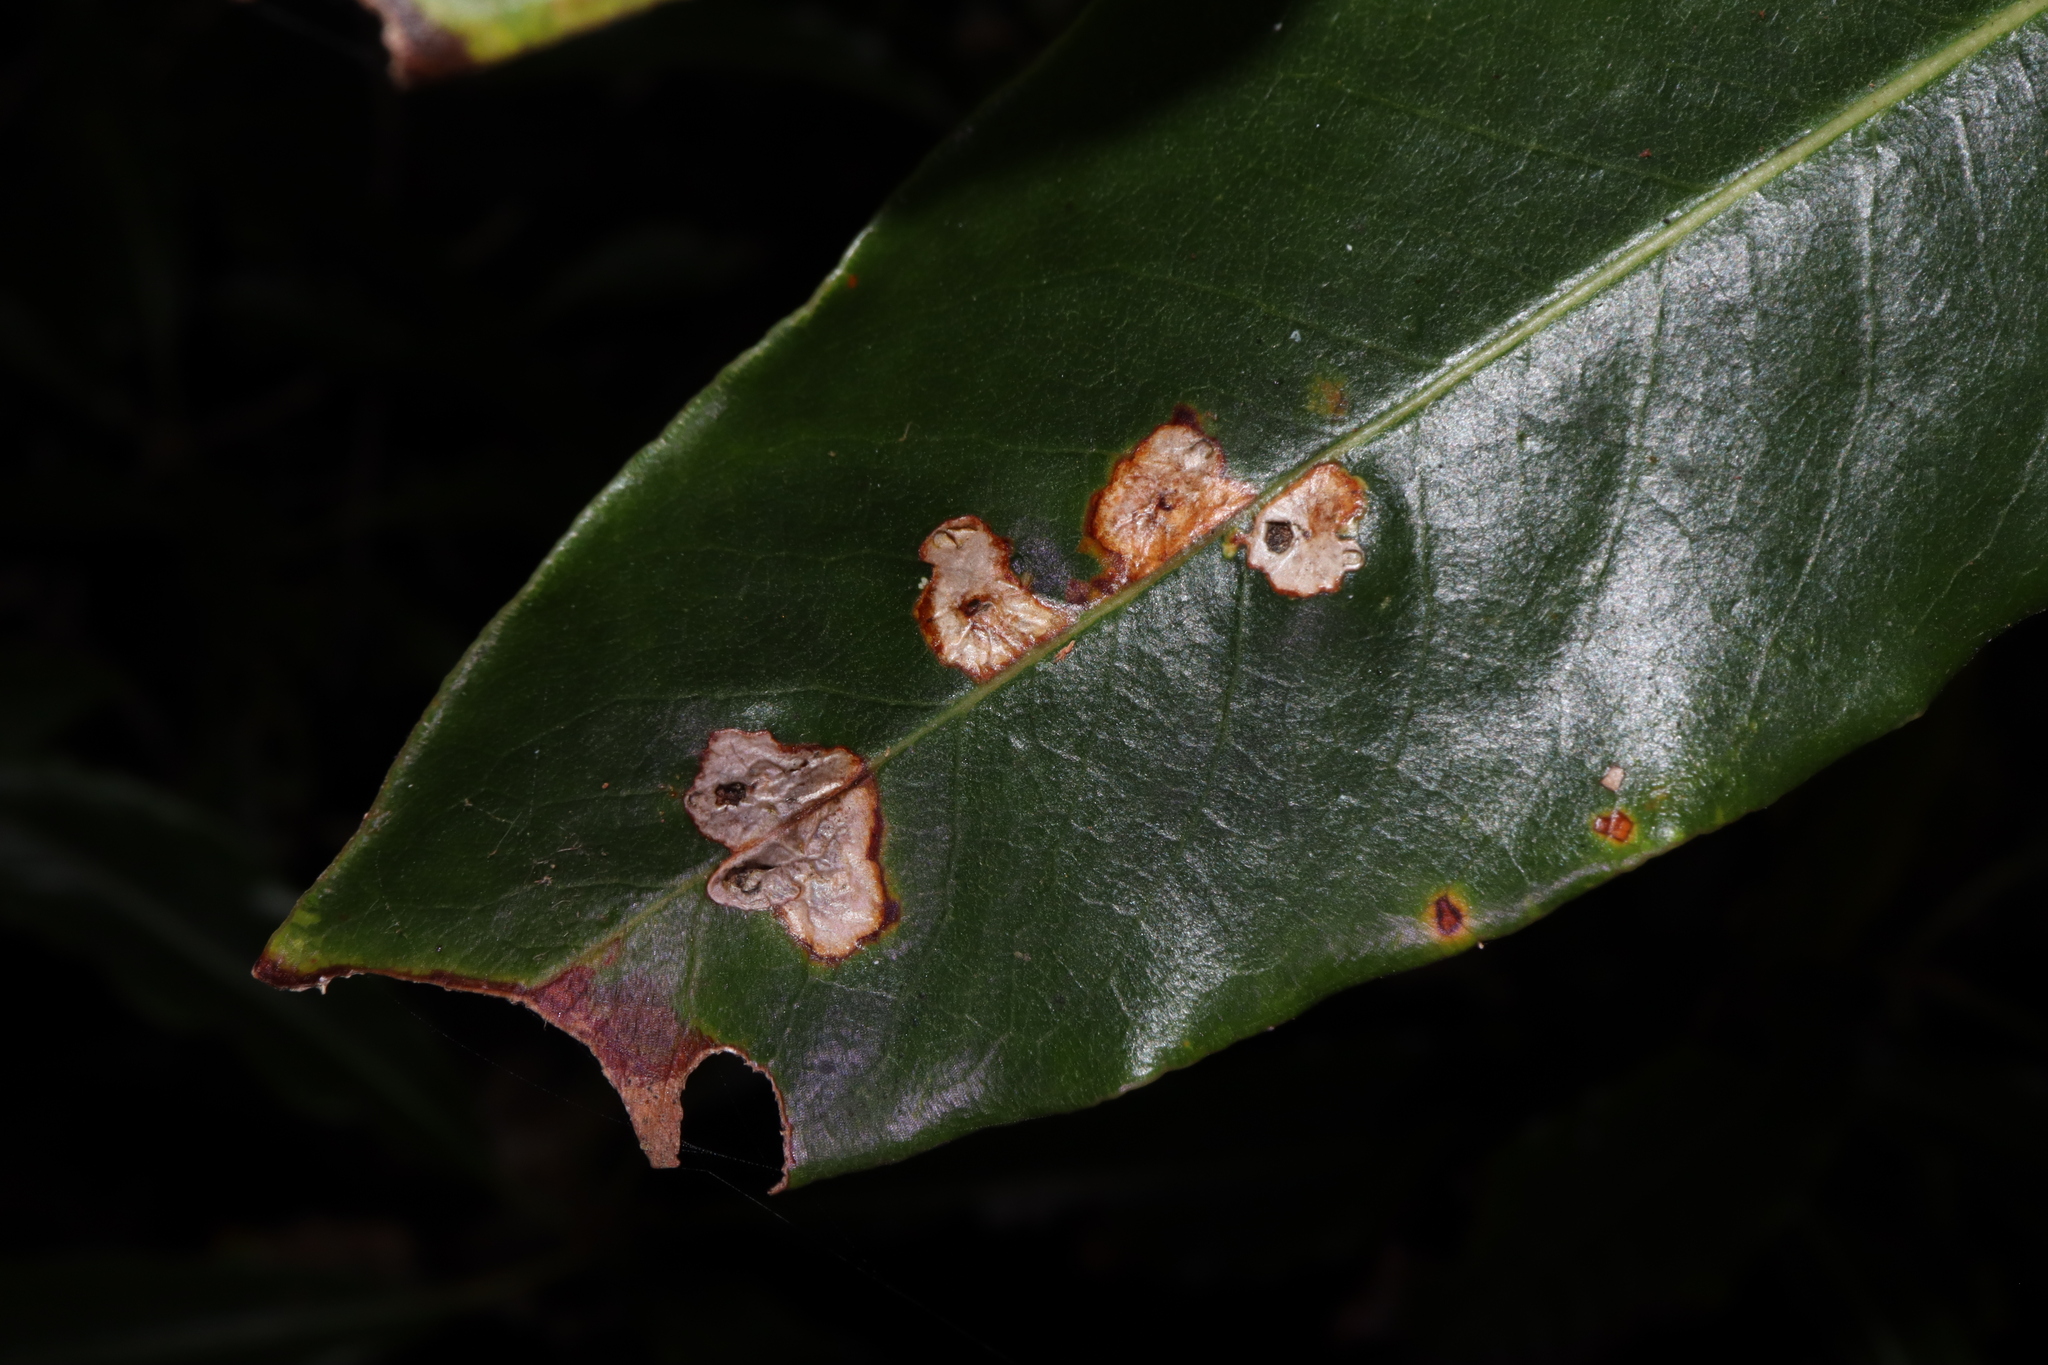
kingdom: Animalia
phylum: Arthropoda
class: Insecta
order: Diptera
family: Agromyzidae
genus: Phytoliriomyza
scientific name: Phytoliriomyza pittosporophylli
